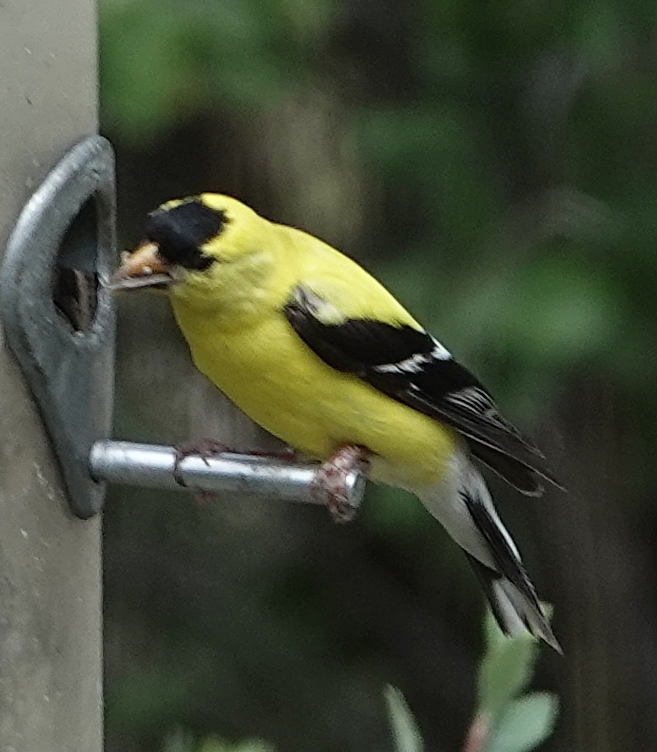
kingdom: Animalia
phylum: Chordata
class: Aves
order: Passeriformes
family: Fringillidae
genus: Spinus
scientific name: Spinus tristis
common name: American goldfinch
